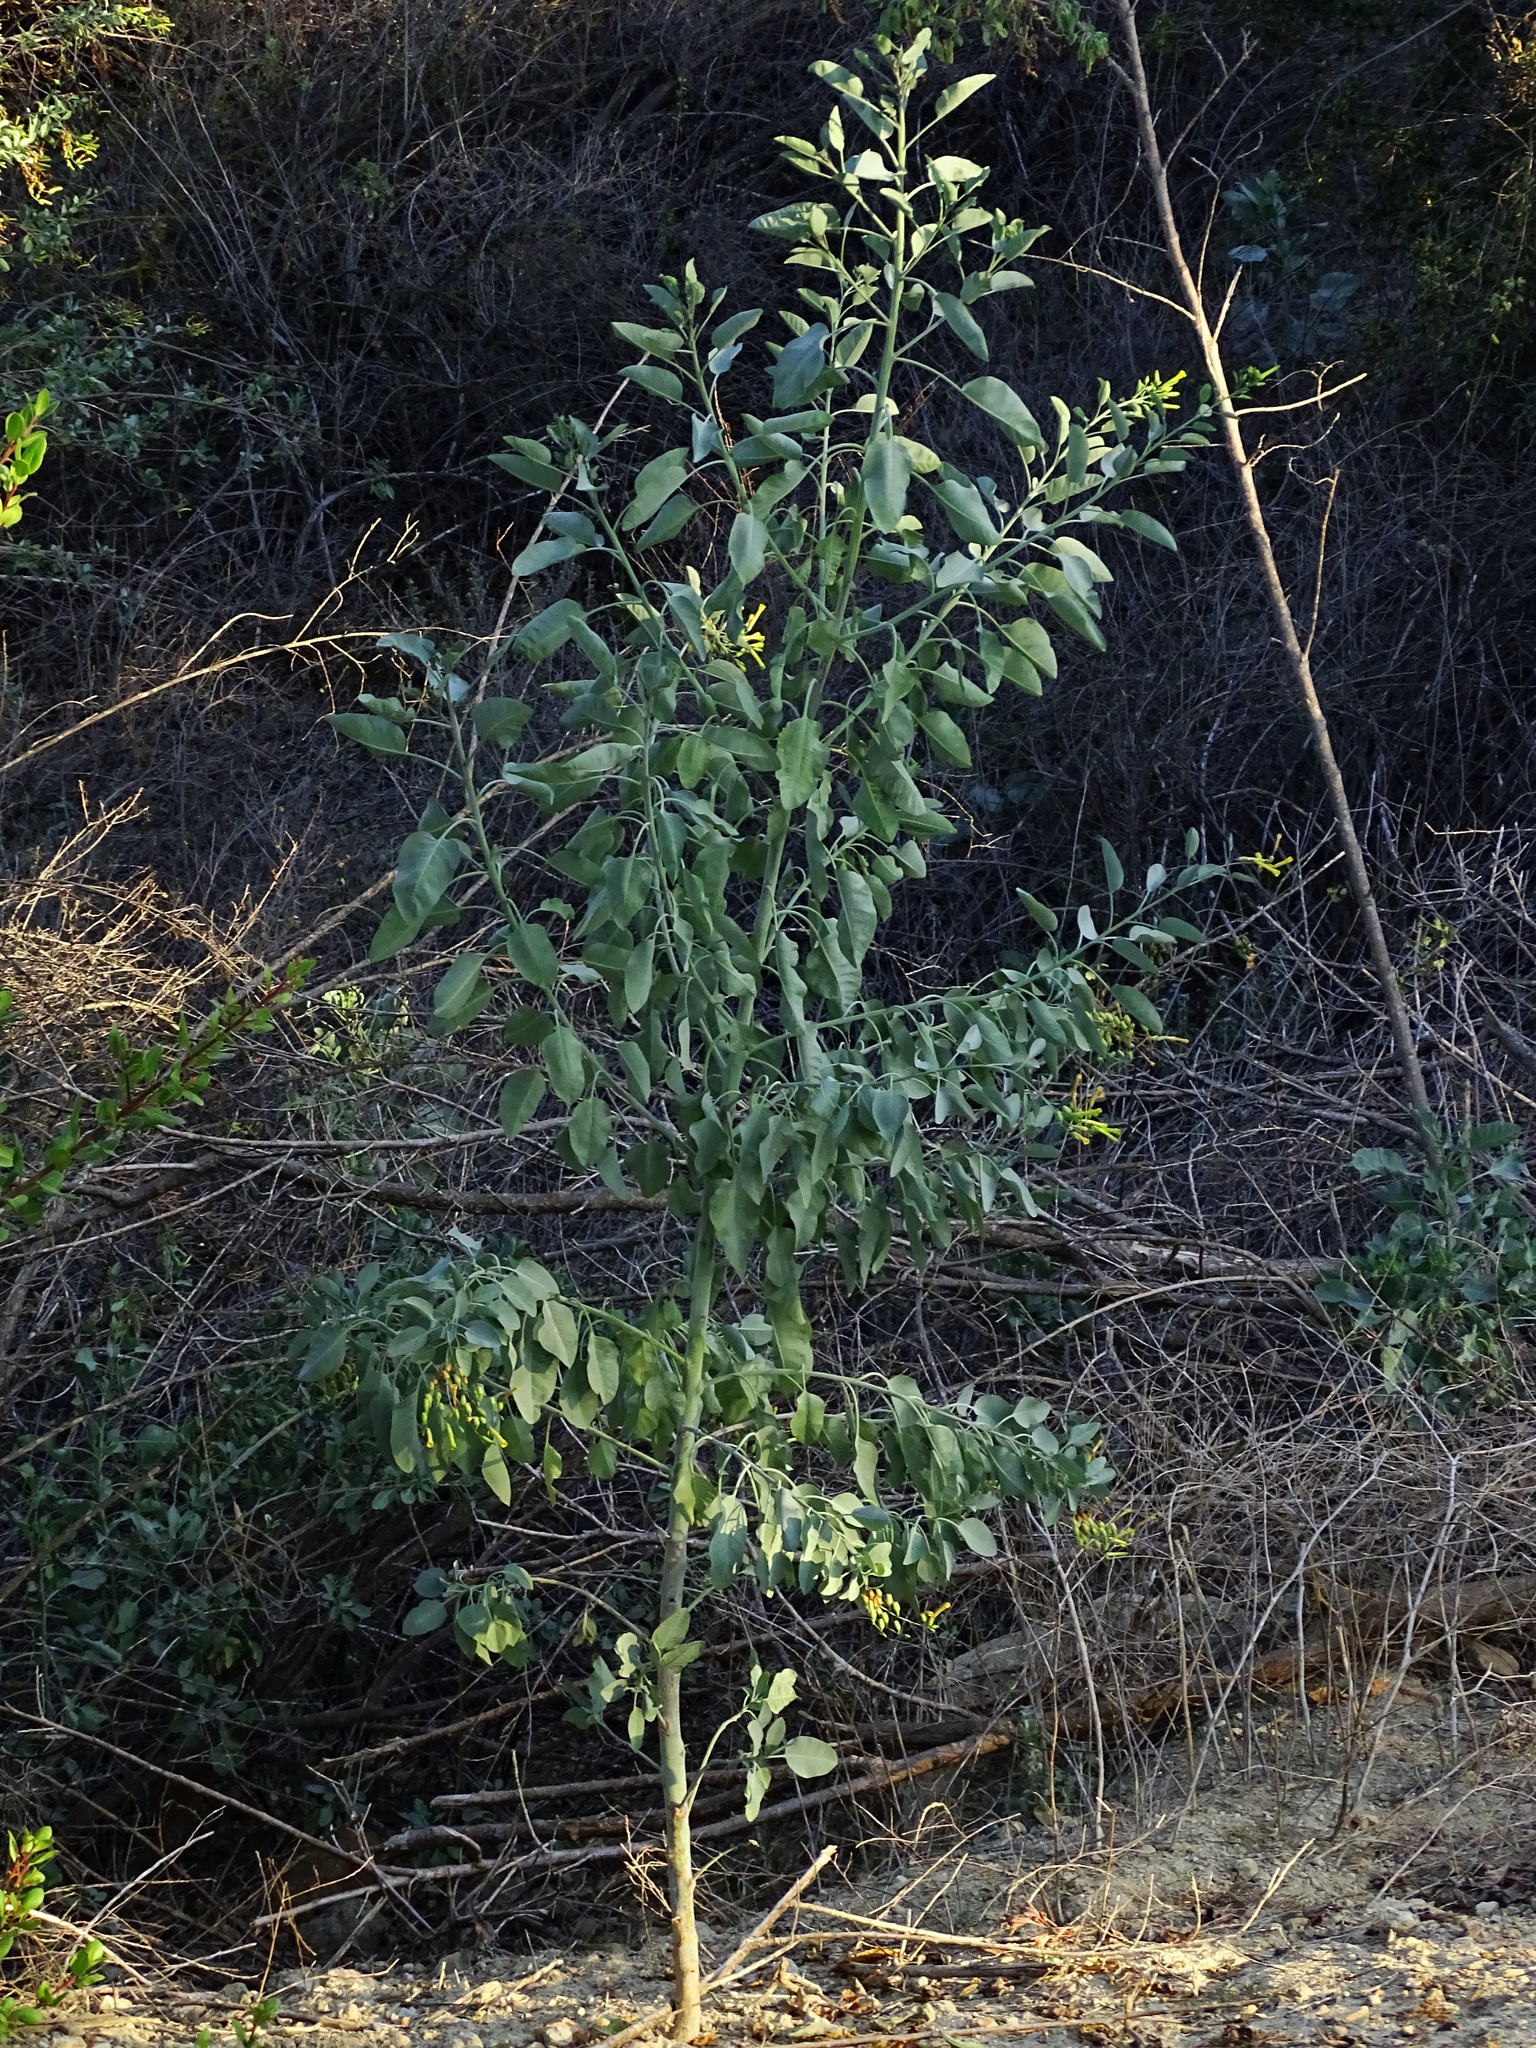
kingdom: Plantae
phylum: Tracheophyta
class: Magnoliopsida
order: Solanales
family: Solanaceae
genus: Nicotiana
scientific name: Nicotiana glauca
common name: Tree tobacco
